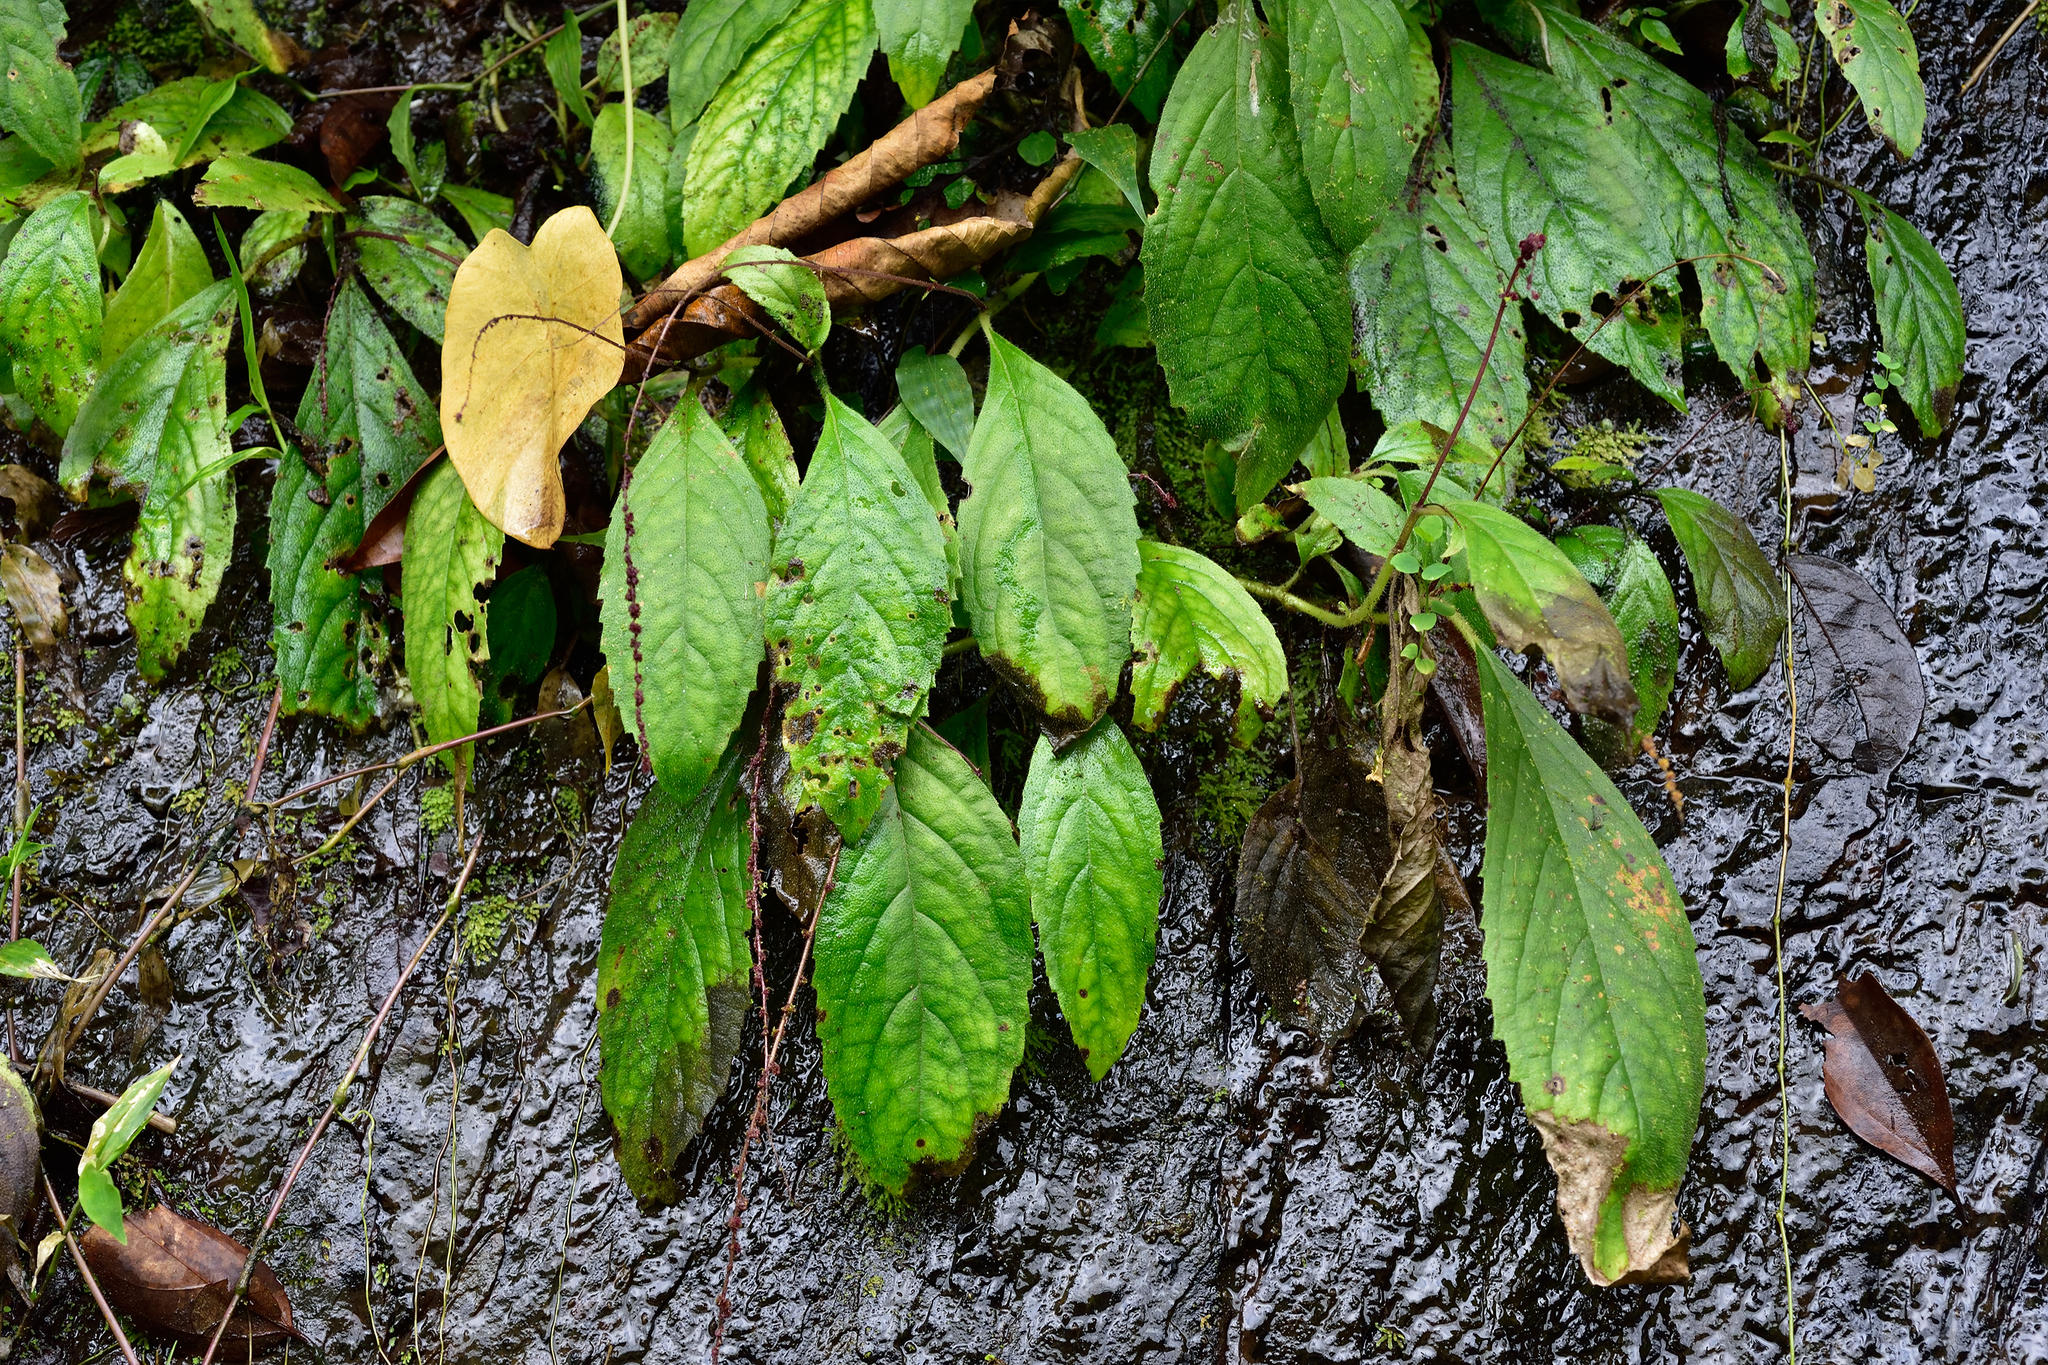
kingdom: Plantae
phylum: Tracheophyta
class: Magnoliopsida
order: Lamiales
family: Gesneriaceae
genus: Titanotrichum
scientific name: Titanotrichum oldhamii
